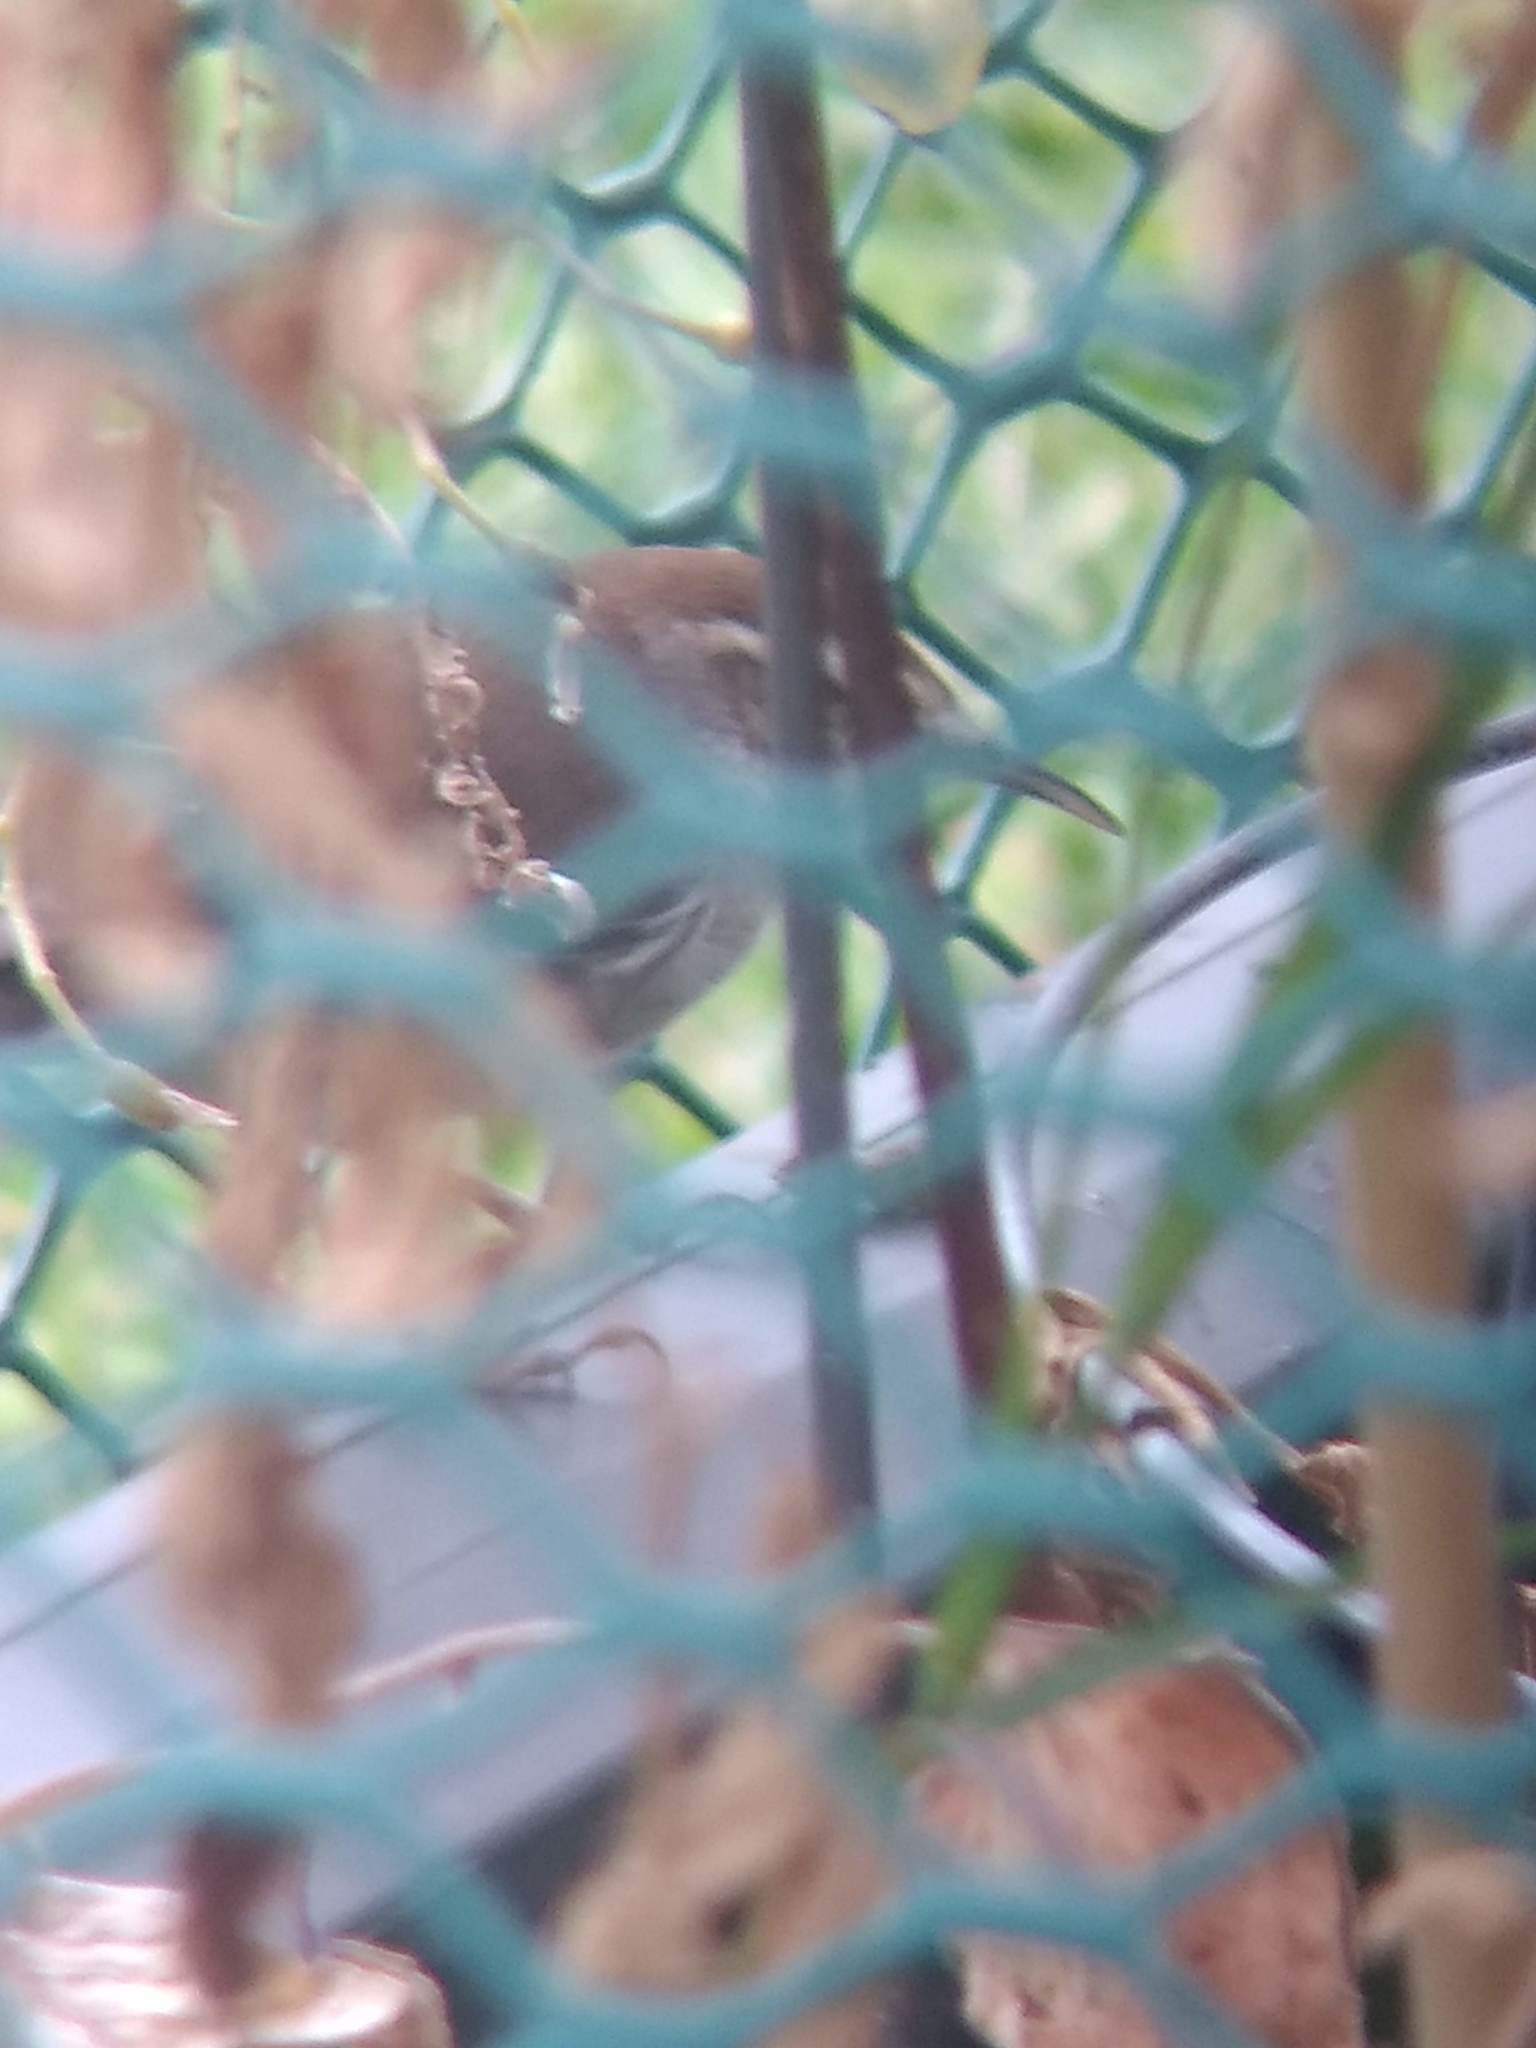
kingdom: Animalia
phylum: Chordata
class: Aves
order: Passeriformes
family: Troglodytidae
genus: Thryomanes
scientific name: Thryomanes bewickii
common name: Bewick's wren
